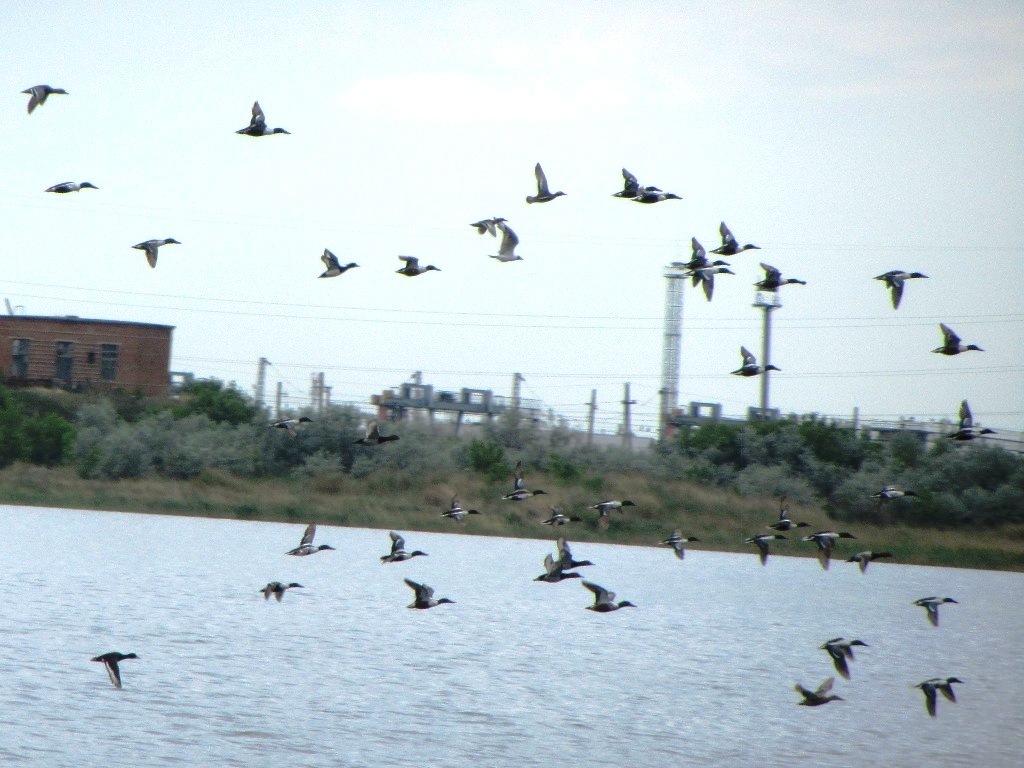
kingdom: Animalia
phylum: Chordata
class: Aves
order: Anseriformes
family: Anatidae
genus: Spatula
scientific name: Spatula clypeata
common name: Northern shoveler
